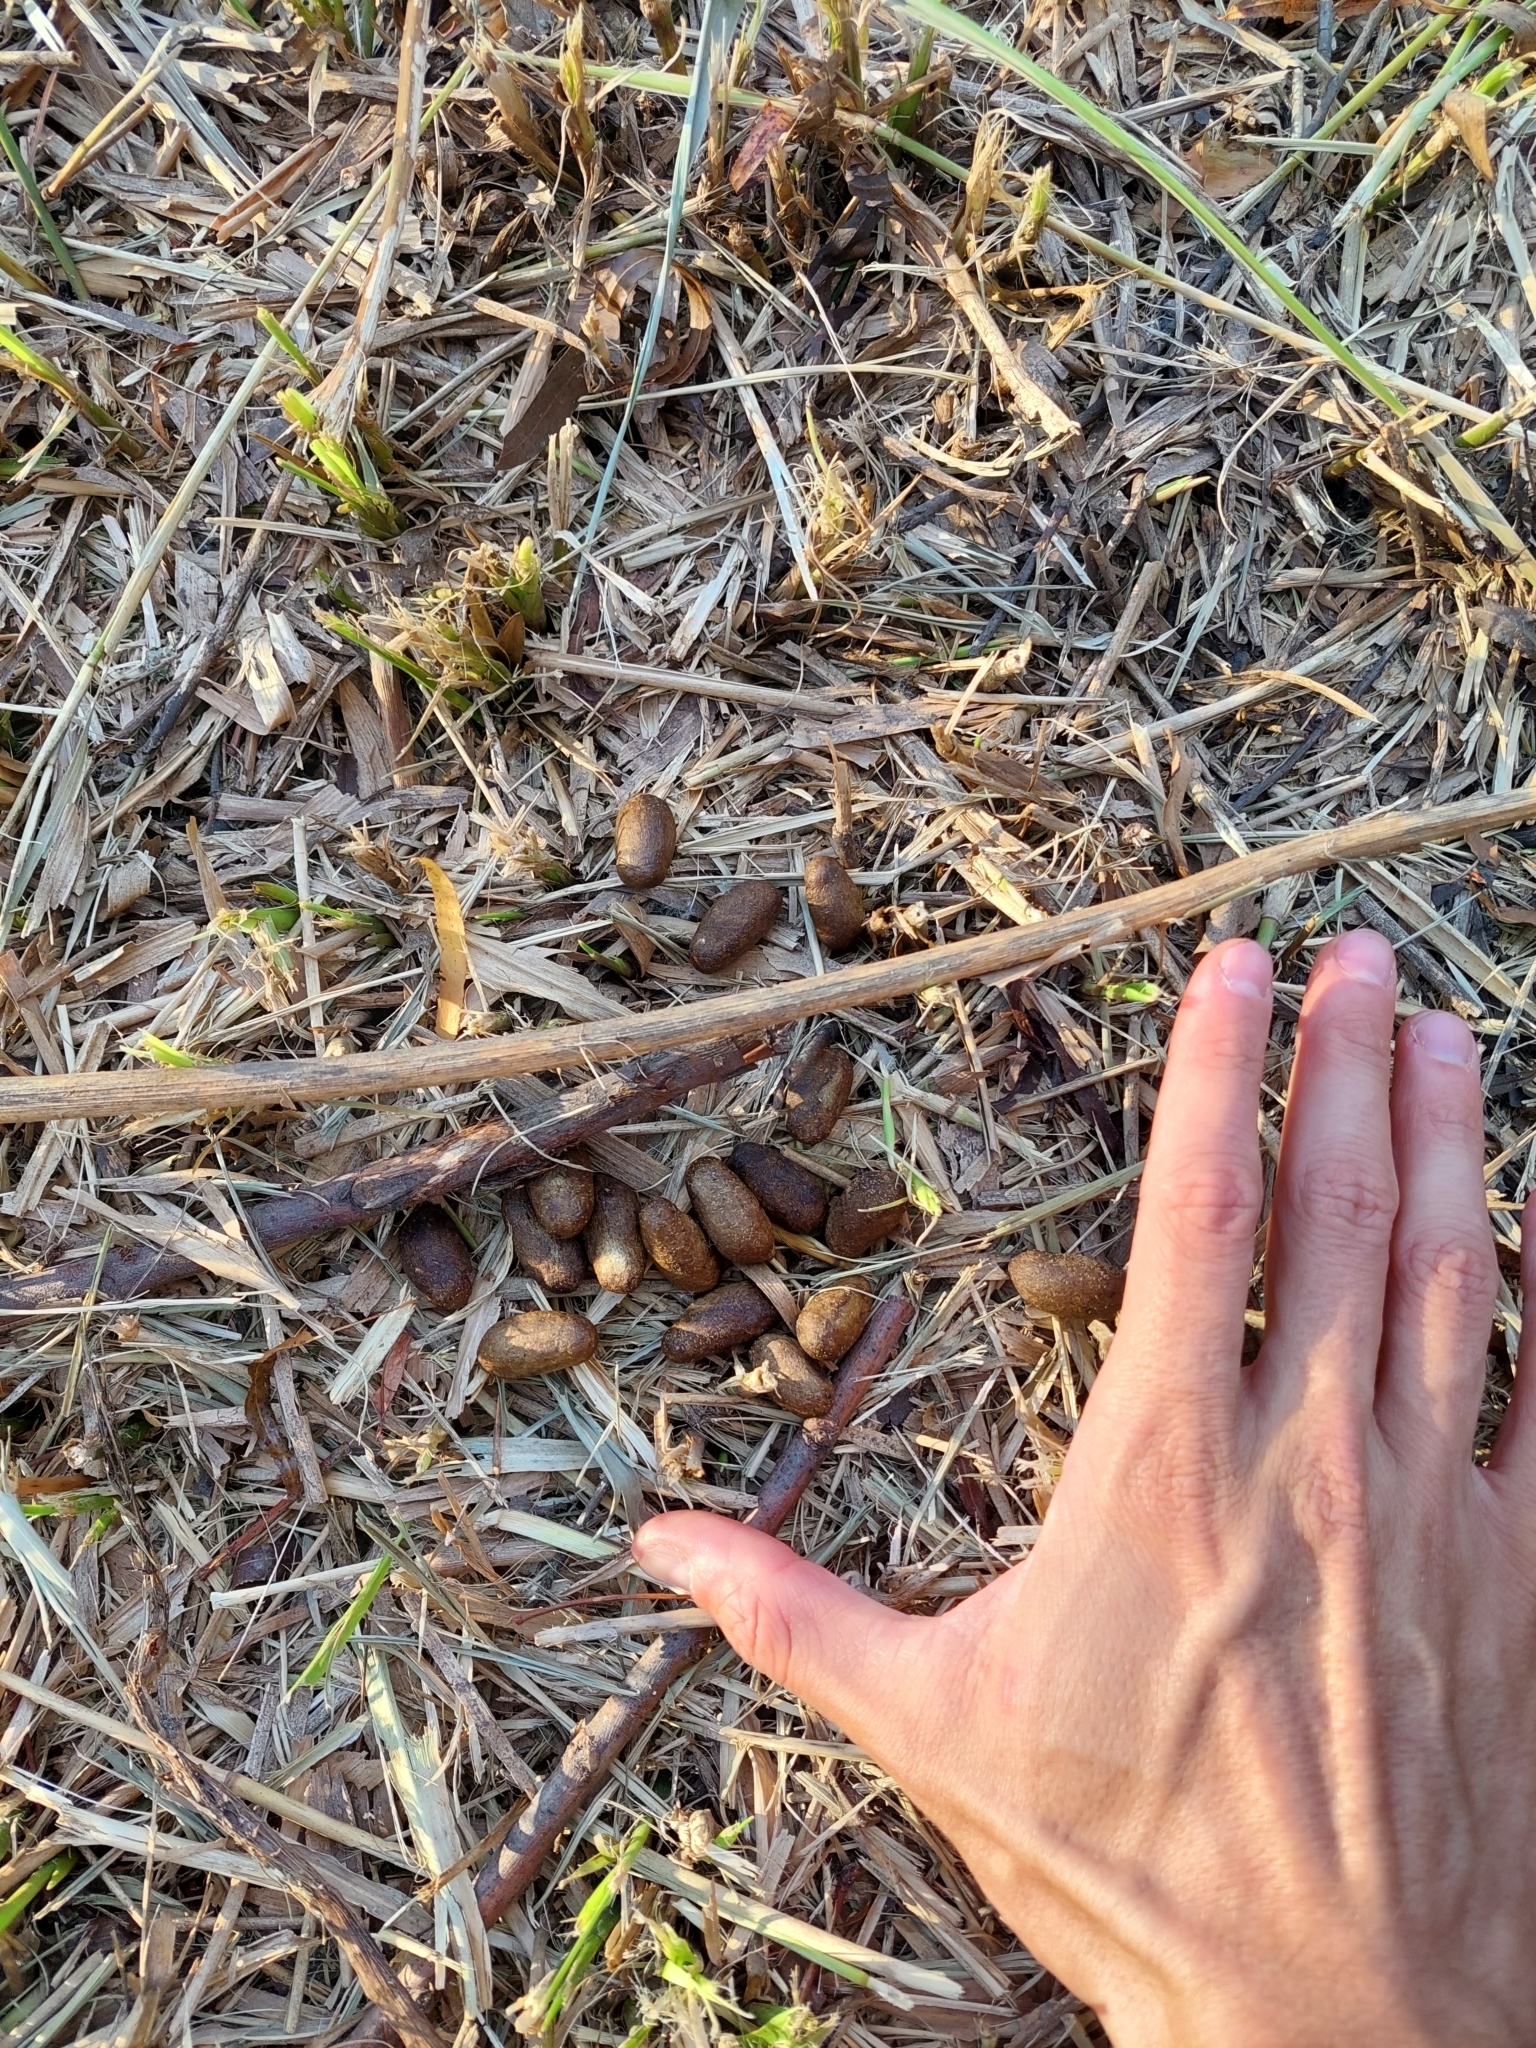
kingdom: Animalia
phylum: Chordata
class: Mammalia
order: Rodentia
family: Caviidae
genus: Hydrochoerus
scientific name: Hydrochoerus hydrochaeris
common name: Capybara
